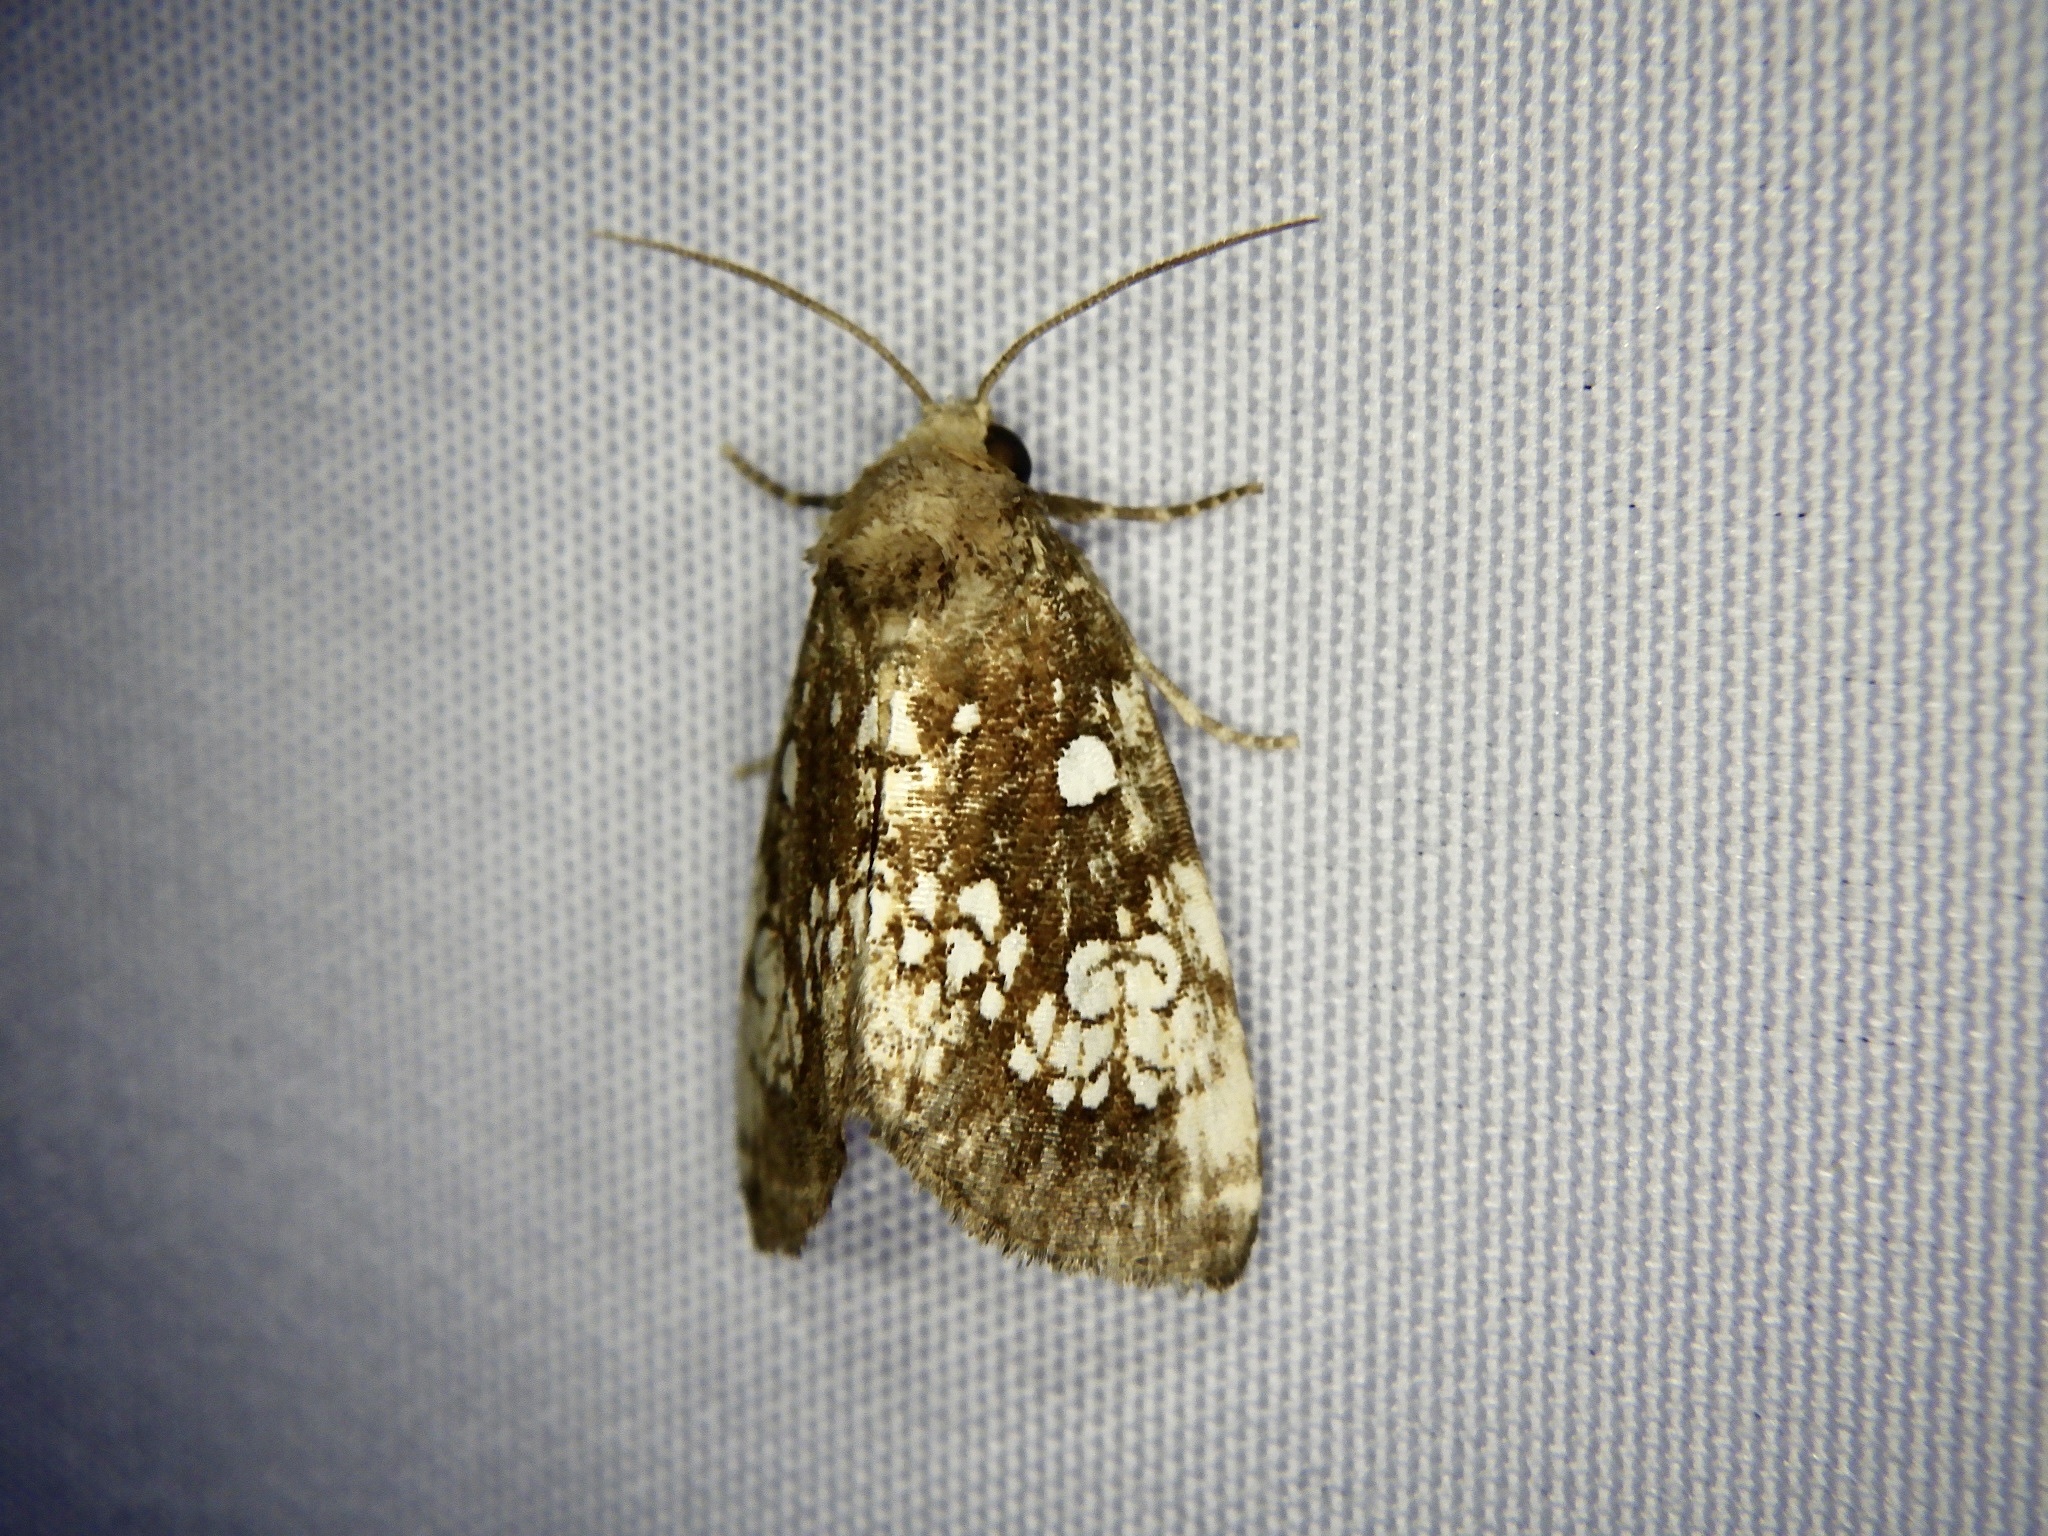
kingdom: Animalia
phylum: Arthropoda
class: Insecta
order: Lepidoptera
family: Noctuidae
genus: Dysmilichia
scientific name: Dysmilichia gemella
